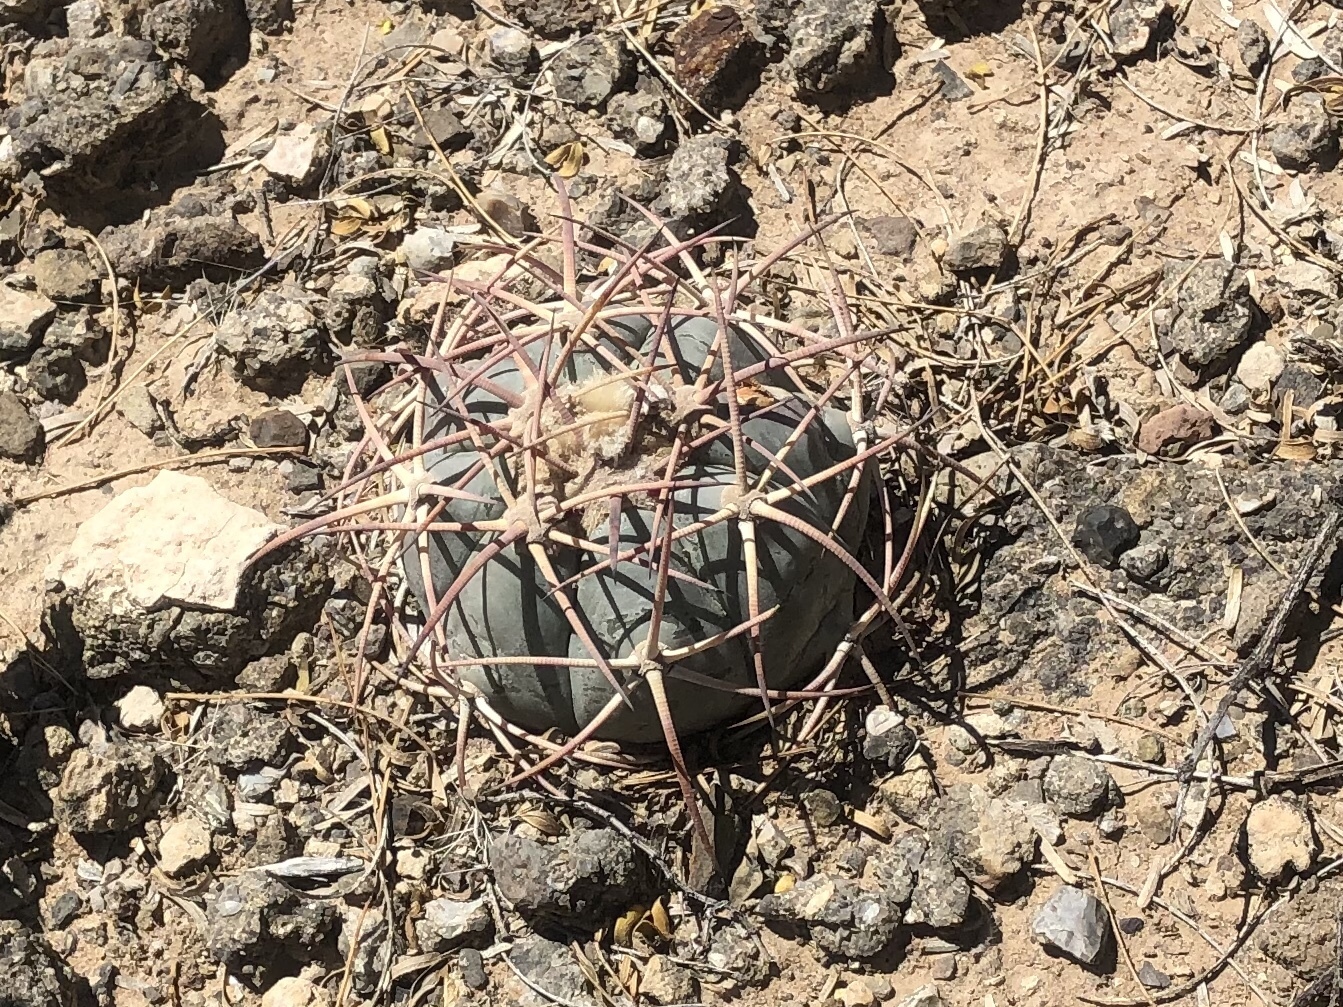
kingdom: Plantae
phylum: Tracheophyta
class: Magnoliopsida
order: Caryophyllales
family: Cactaceae
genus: Echinocactus
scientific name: Echinocactus horizonthalonius
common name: Devilshead
